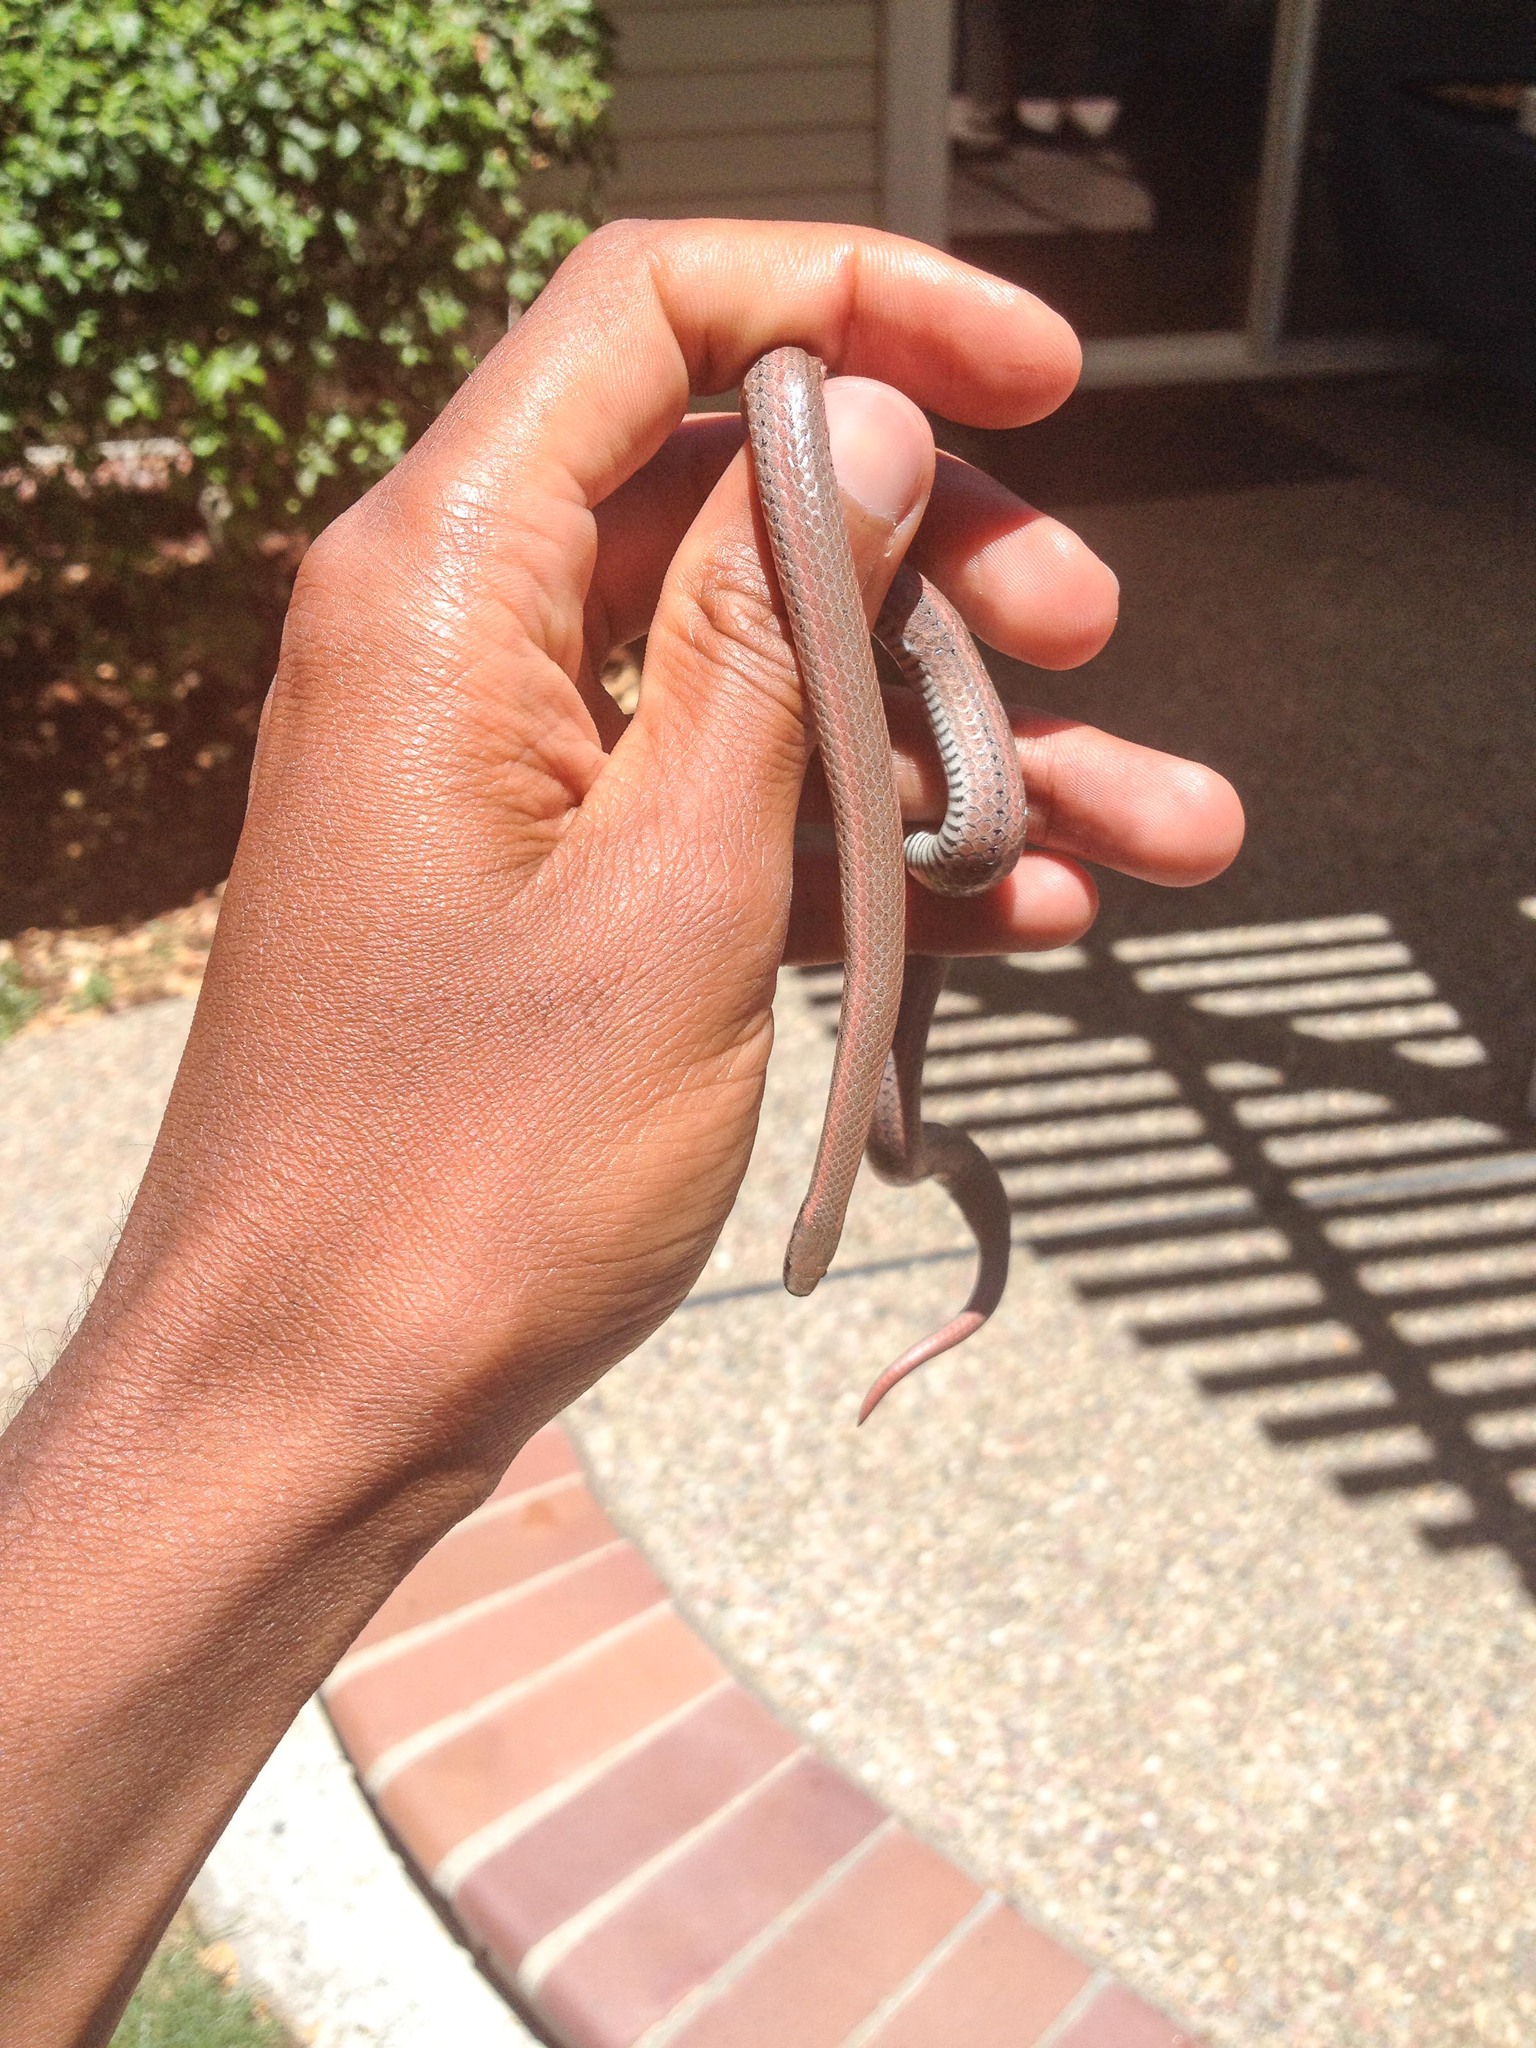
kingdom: Animalia
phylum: Chordata
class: Squamata
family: Colubridae
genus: Contia
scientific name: Contia tenuis
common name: Sharptail snake
